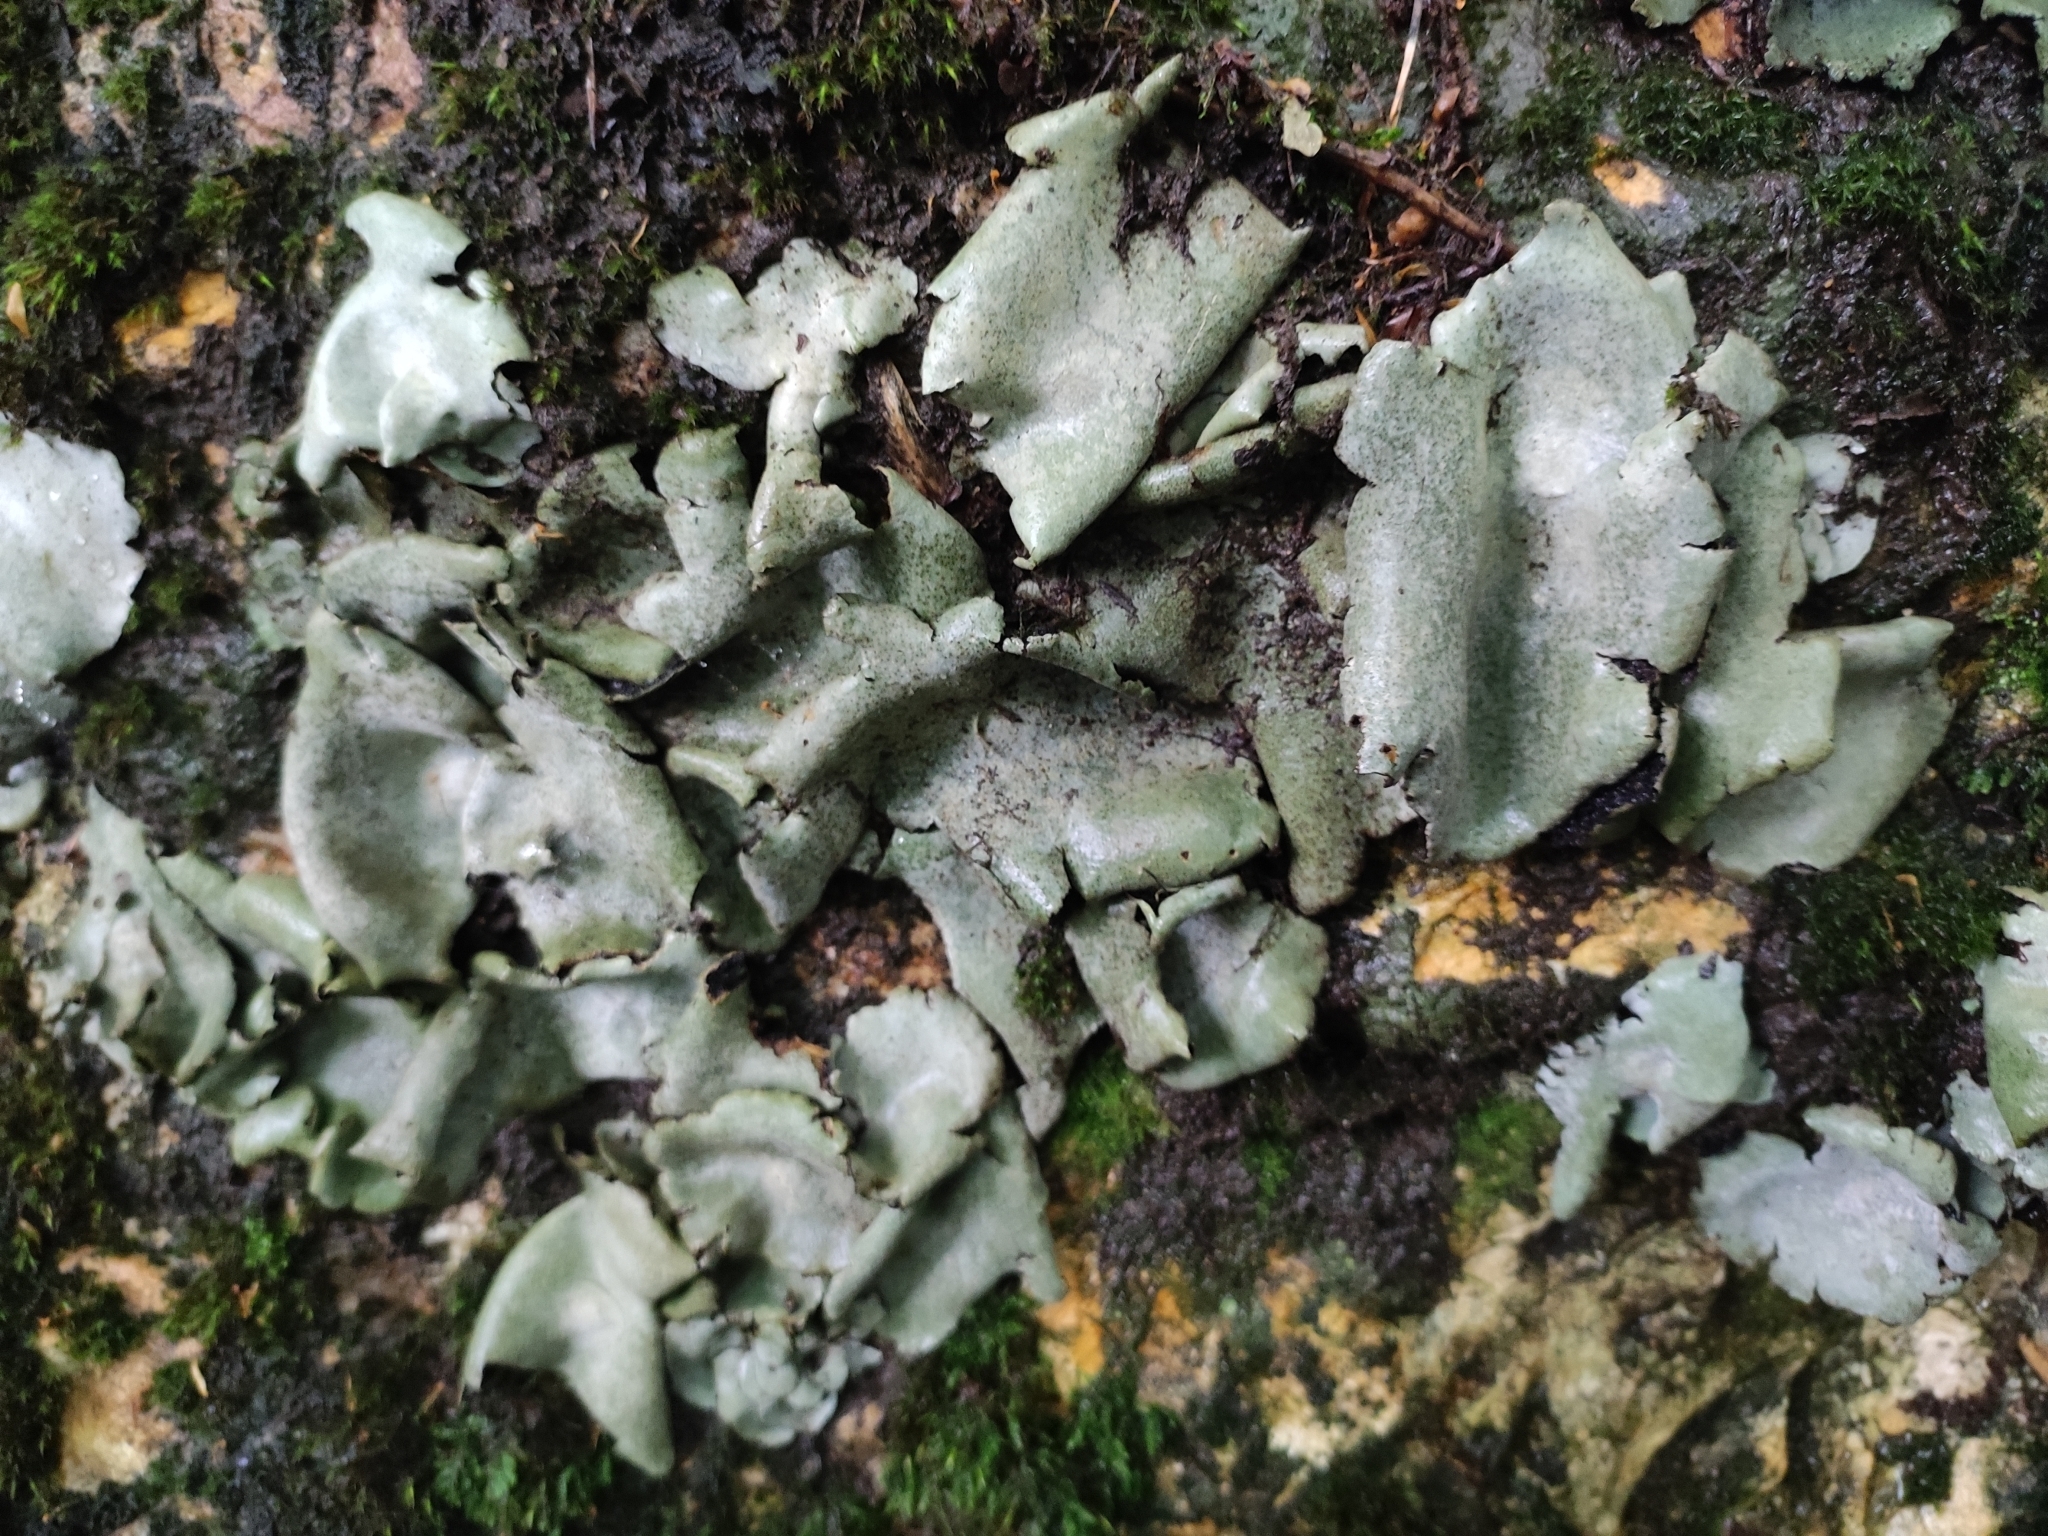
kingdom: Fungi
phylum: Ascomycota
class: Lecanoromycetes
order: Umbilicariales
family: Umbilicariaceae
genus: Umbilicaria
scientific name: Umbilicaria hirsuta
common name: Granulating rocktripe lichen
